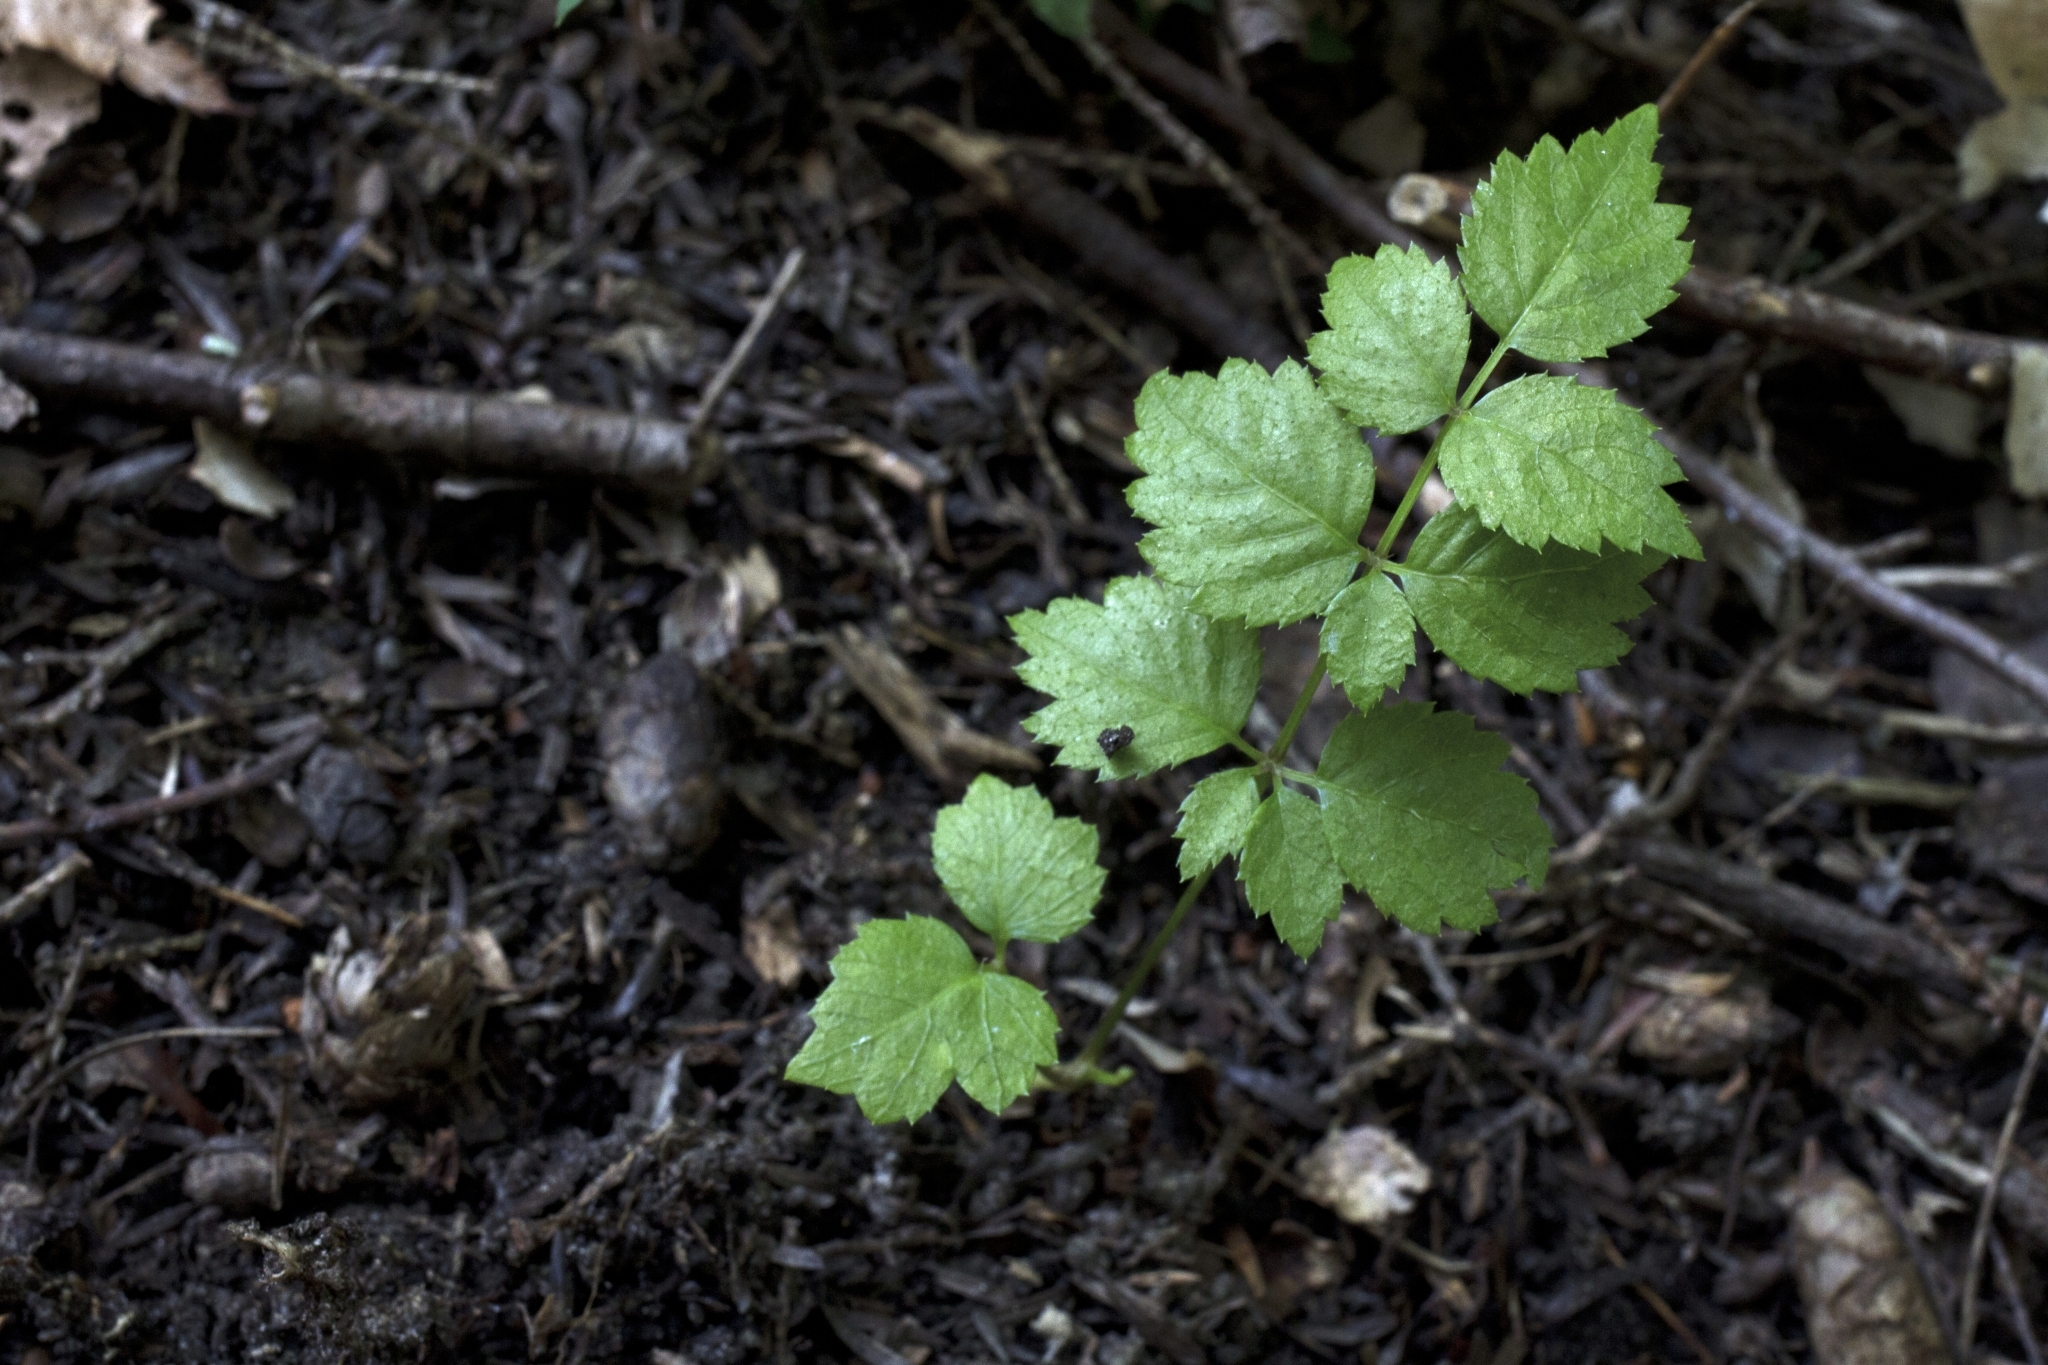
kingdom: Plantae
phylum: Tracheophyta
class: Magnoliopsida
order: Apiales
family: Araliaceae
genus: Aralia
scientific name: Aralia elata
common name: Japanese angelica-tree
